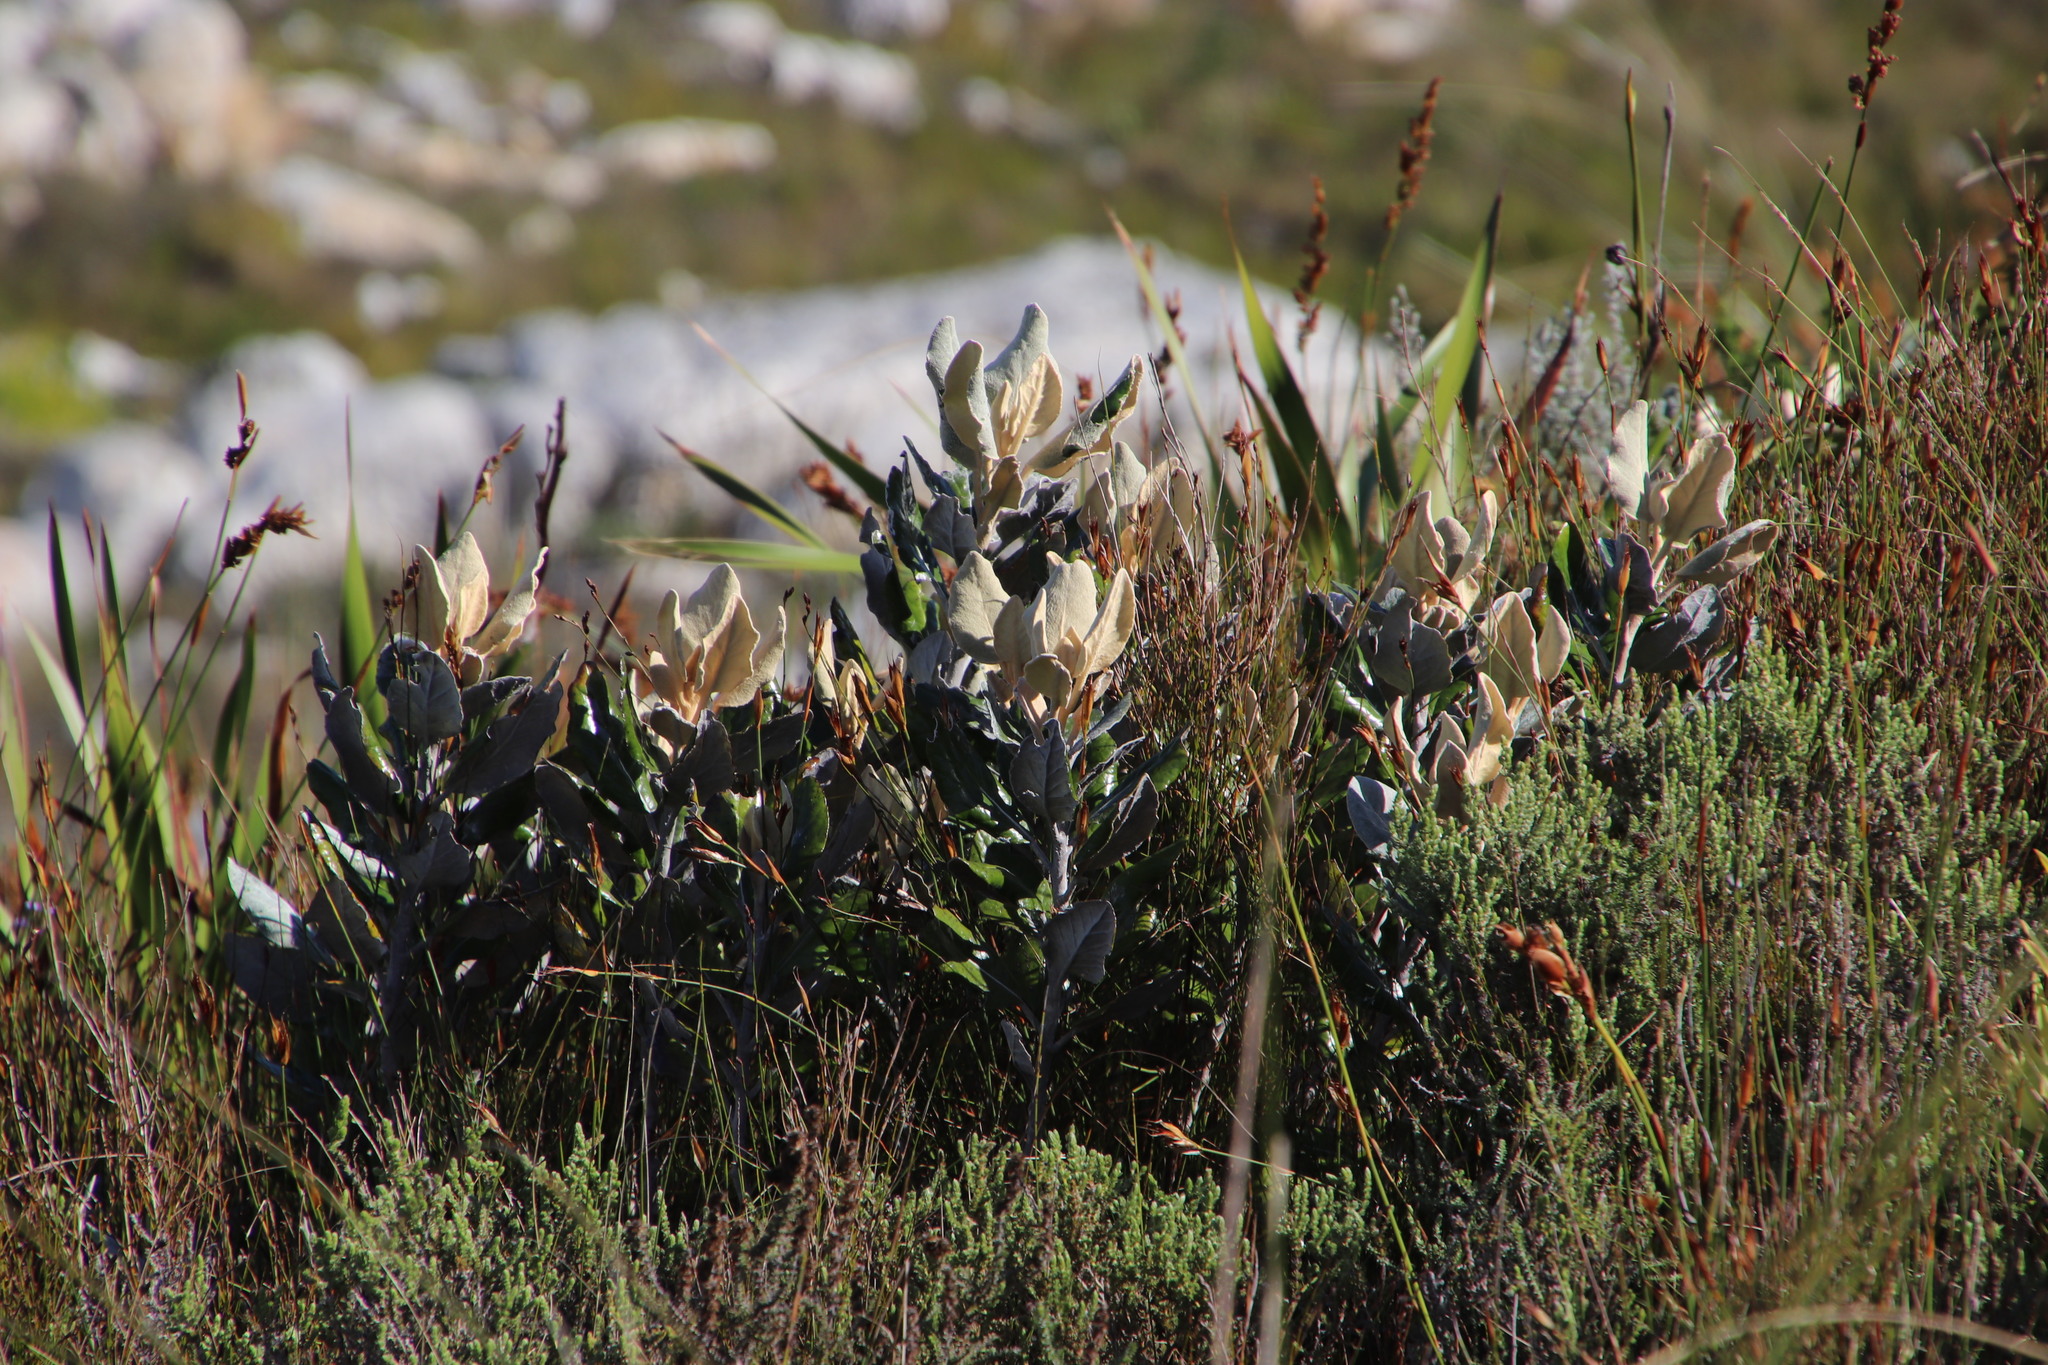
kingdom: Plantae
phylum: Tracheophyta
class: Magnoliopsida
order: Apiales
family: Apiaceae
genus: Hermas
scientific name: Hermas villosa
